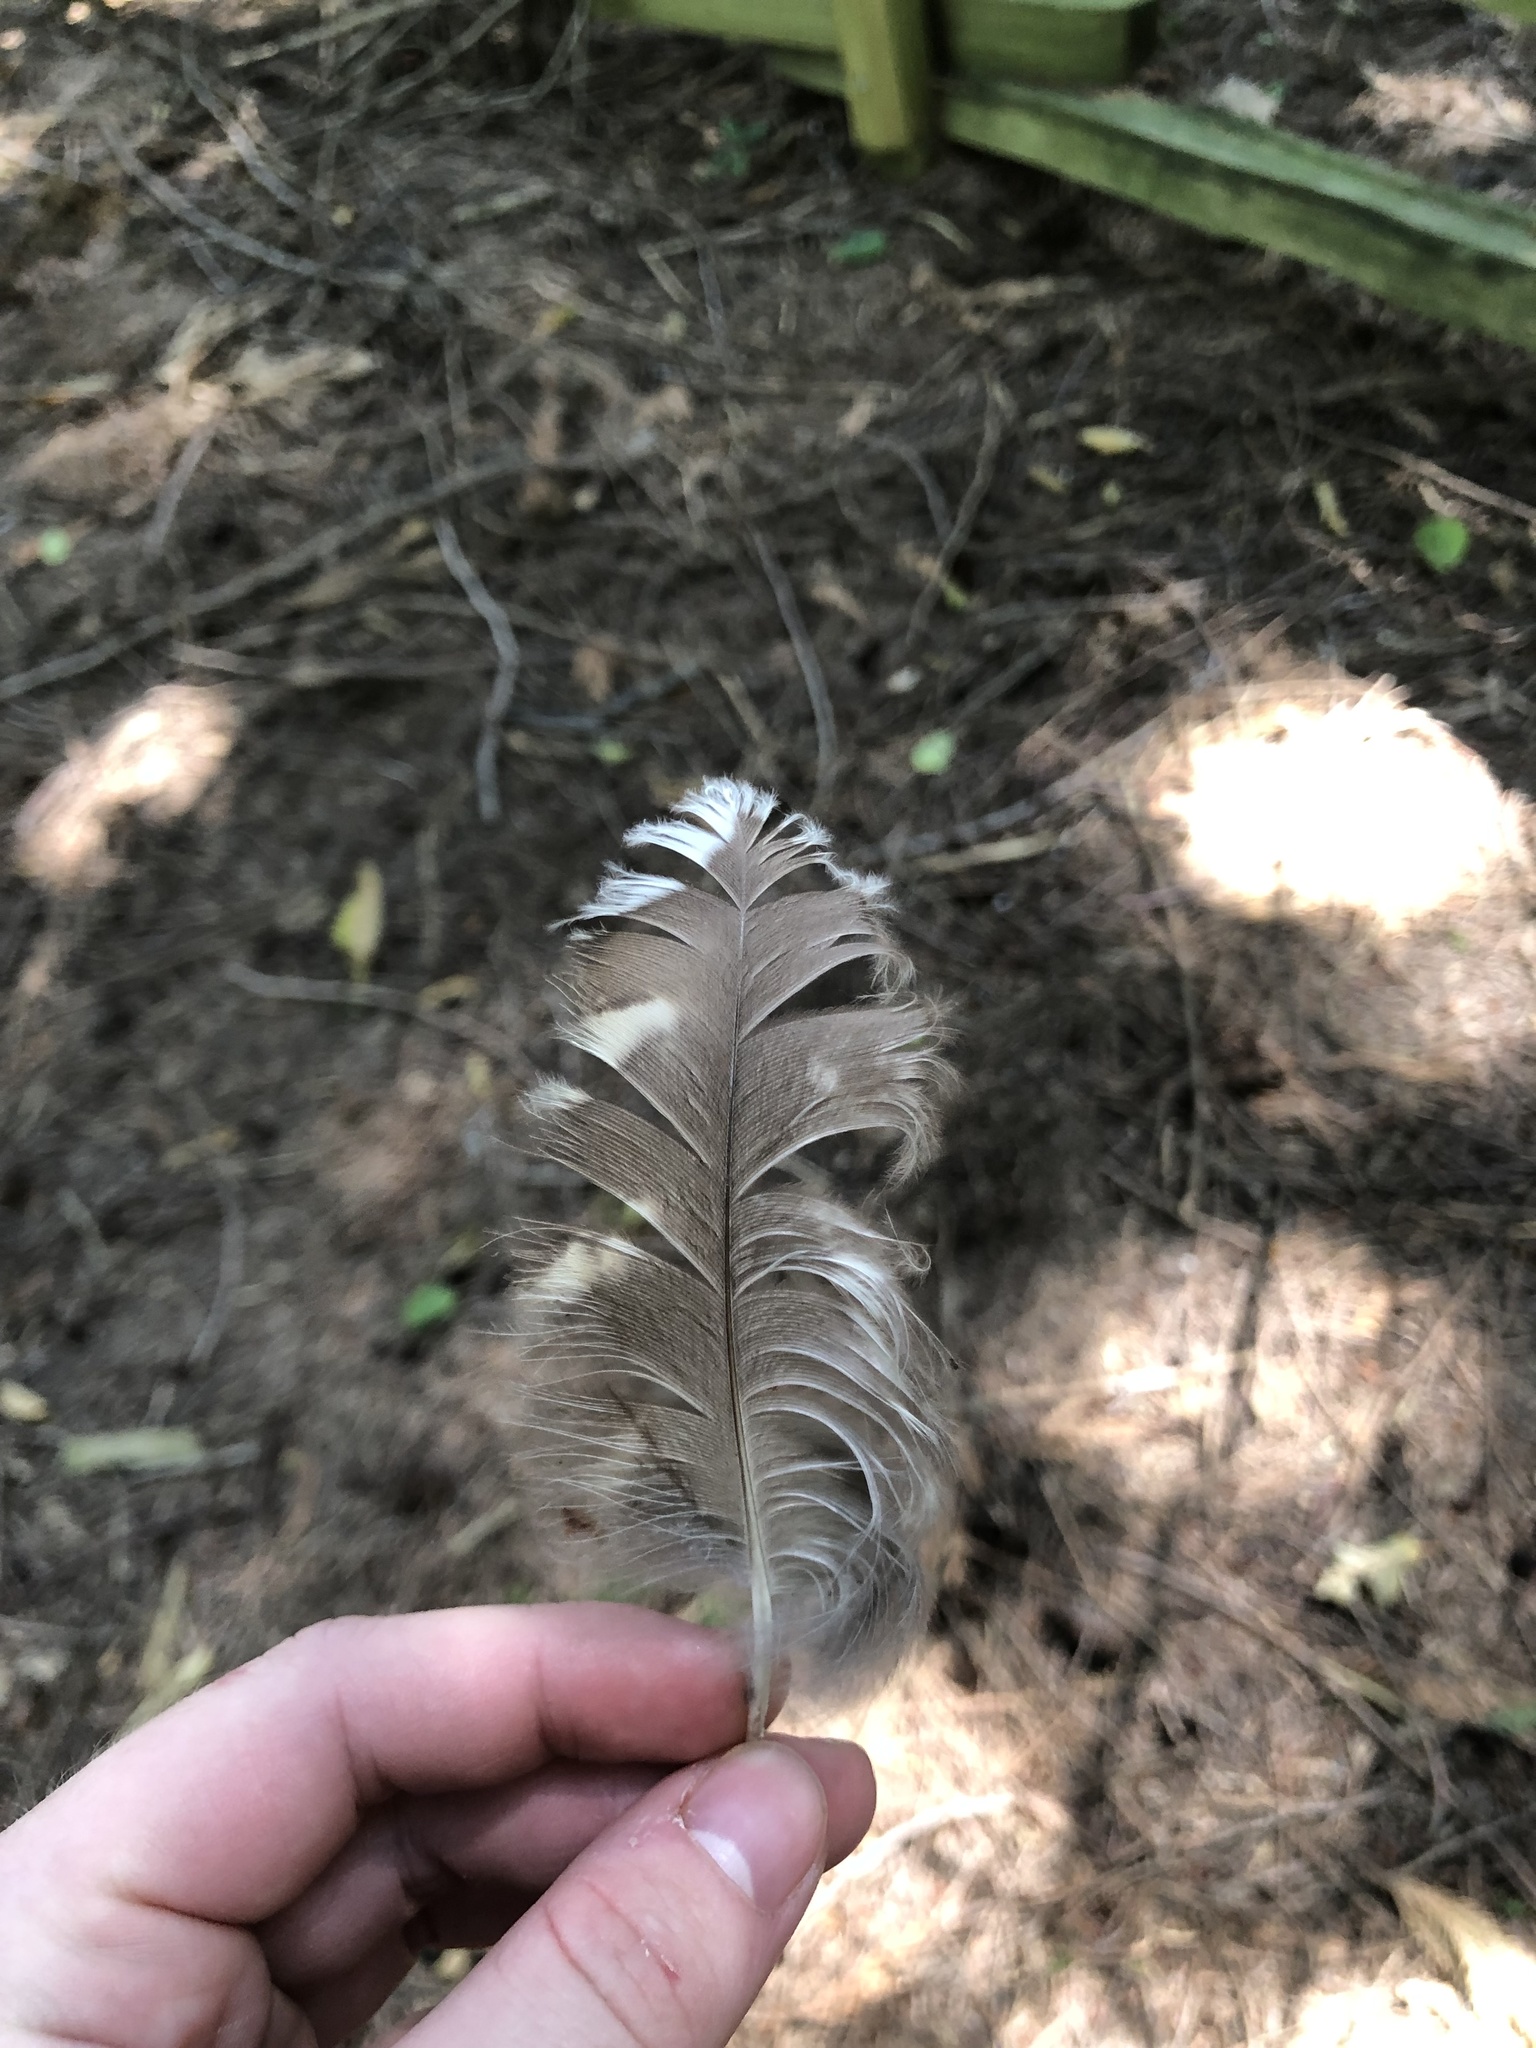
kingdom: Animalia
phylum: Chordata
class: Aves
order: Strigiformes
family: Strigidae
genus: Strix
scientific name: Strix varia
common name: Barred owl
